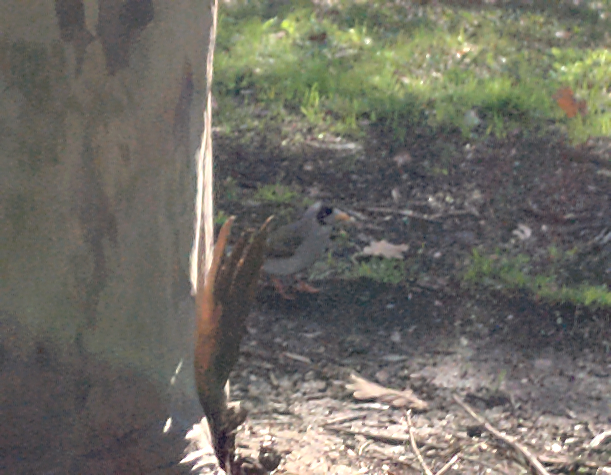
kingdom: Animalia
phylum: Chordata
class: Aves
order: Passeriformes
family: Meliphagidae
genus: Manorina
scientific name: Manorina melanocephala
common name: Noisy miner
